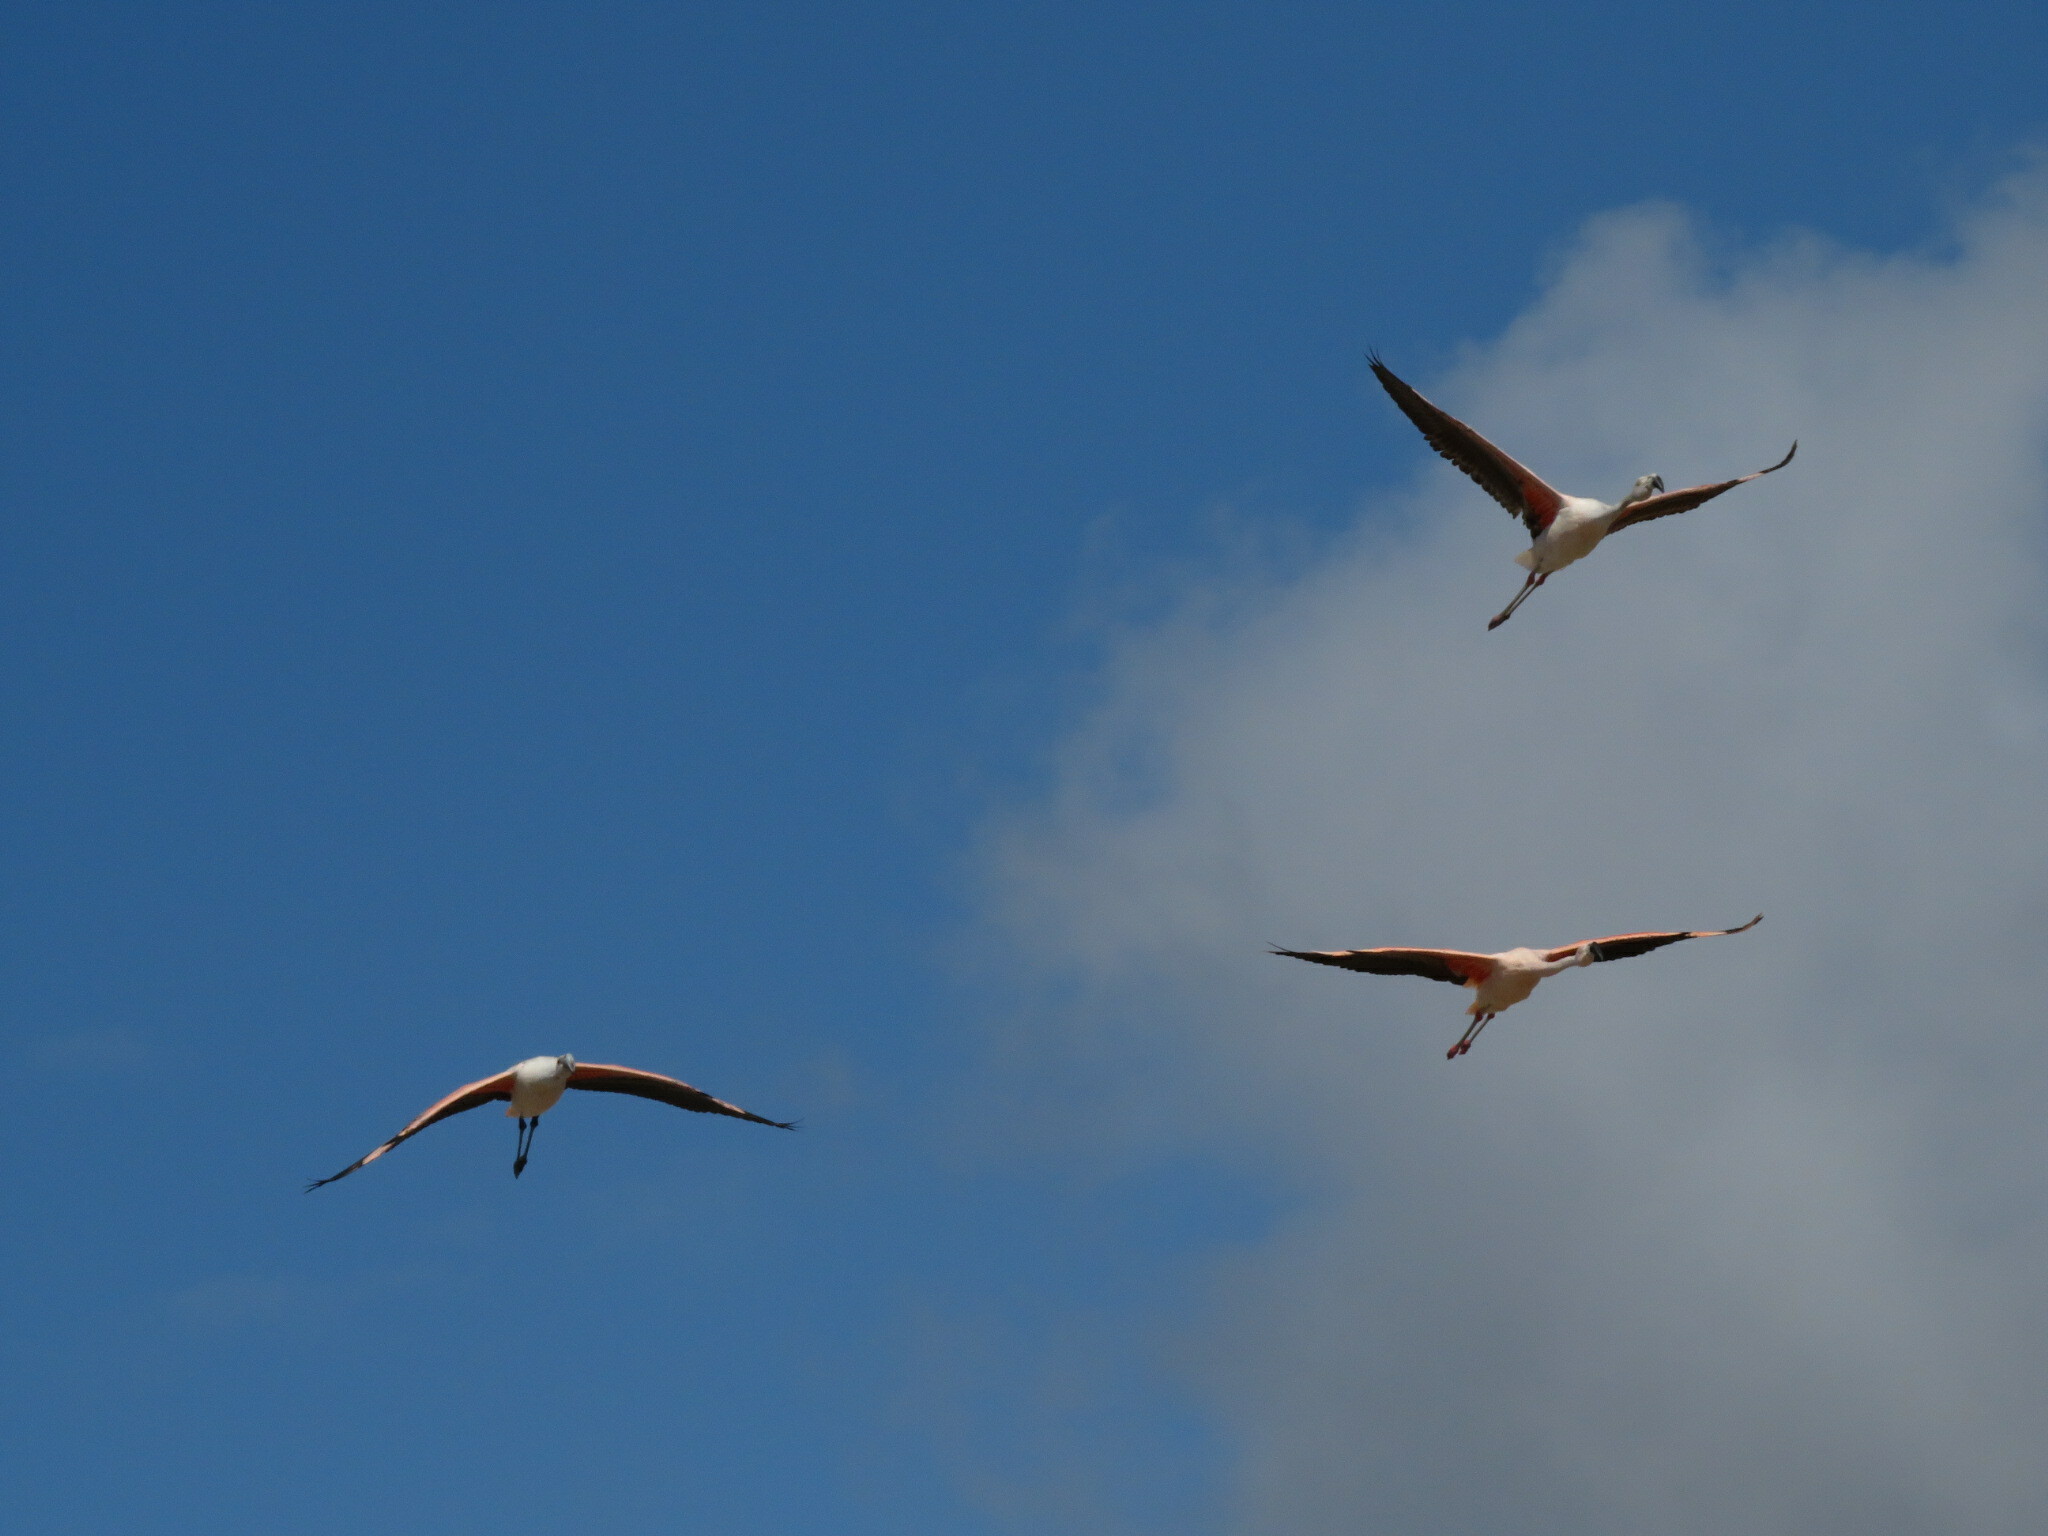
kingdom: Animalia
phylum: Chordata
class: Aves
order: Phoenicopteriformes
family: Phoenicopteridae
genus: Phoenicopterus
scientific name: Phoenicopterus chilensis
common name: Chilean flamingo
